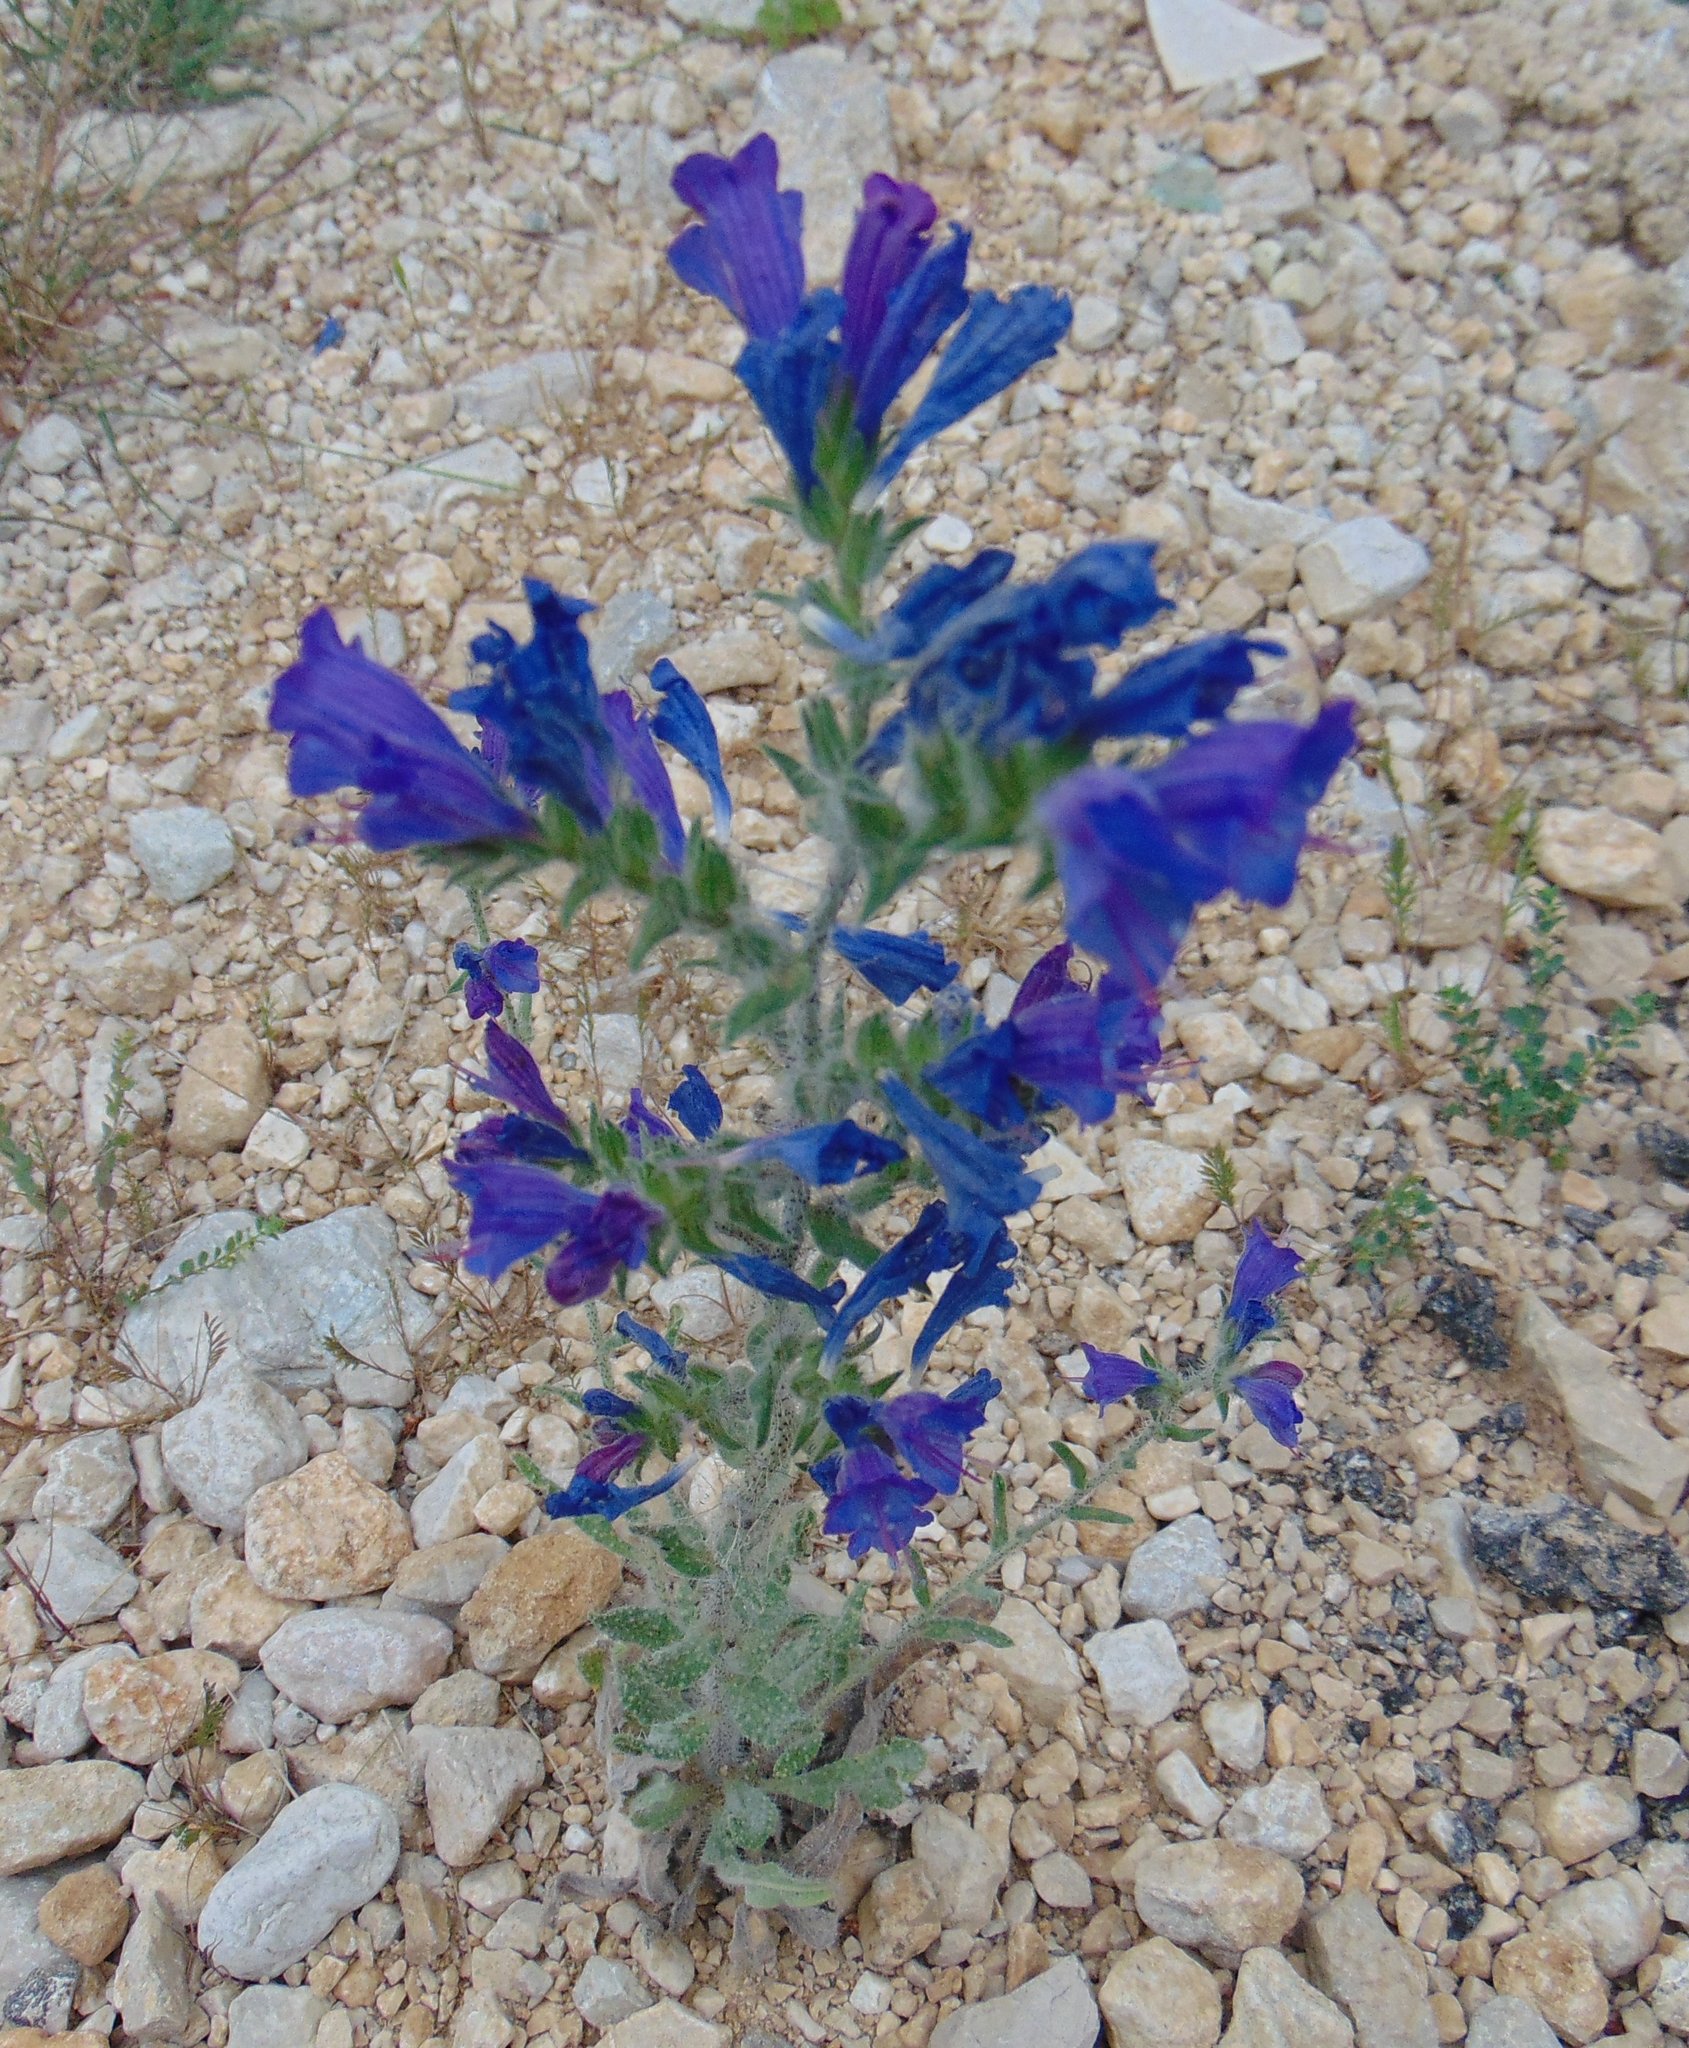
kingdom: Plantae
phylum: Tracheophyta
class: Magnoliopsida
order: Boraginales
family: Boraginaceae
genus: Echium
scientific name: Echium vulgare
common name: Common viper's bugloss
